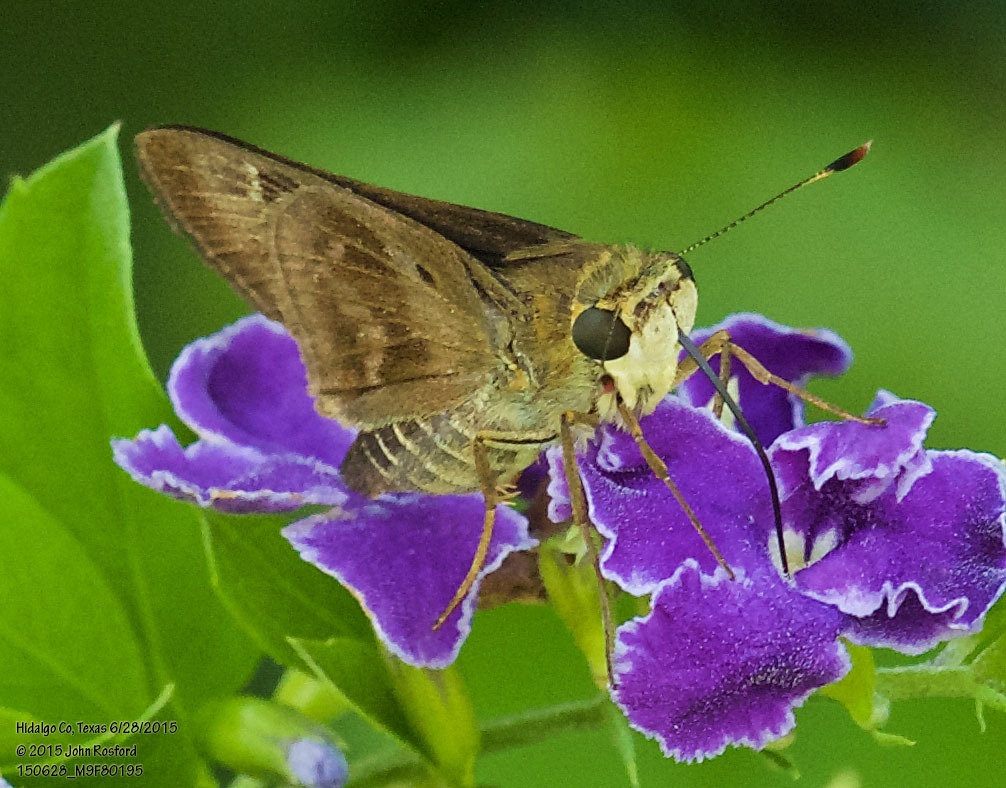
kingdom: Animalia
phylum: Arthropoda
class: Insecta
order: Lepidoptera
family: Hesperiidae
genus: Nyctelius
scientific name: Nyctelius nyctelius
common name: Violet-banded skipper
